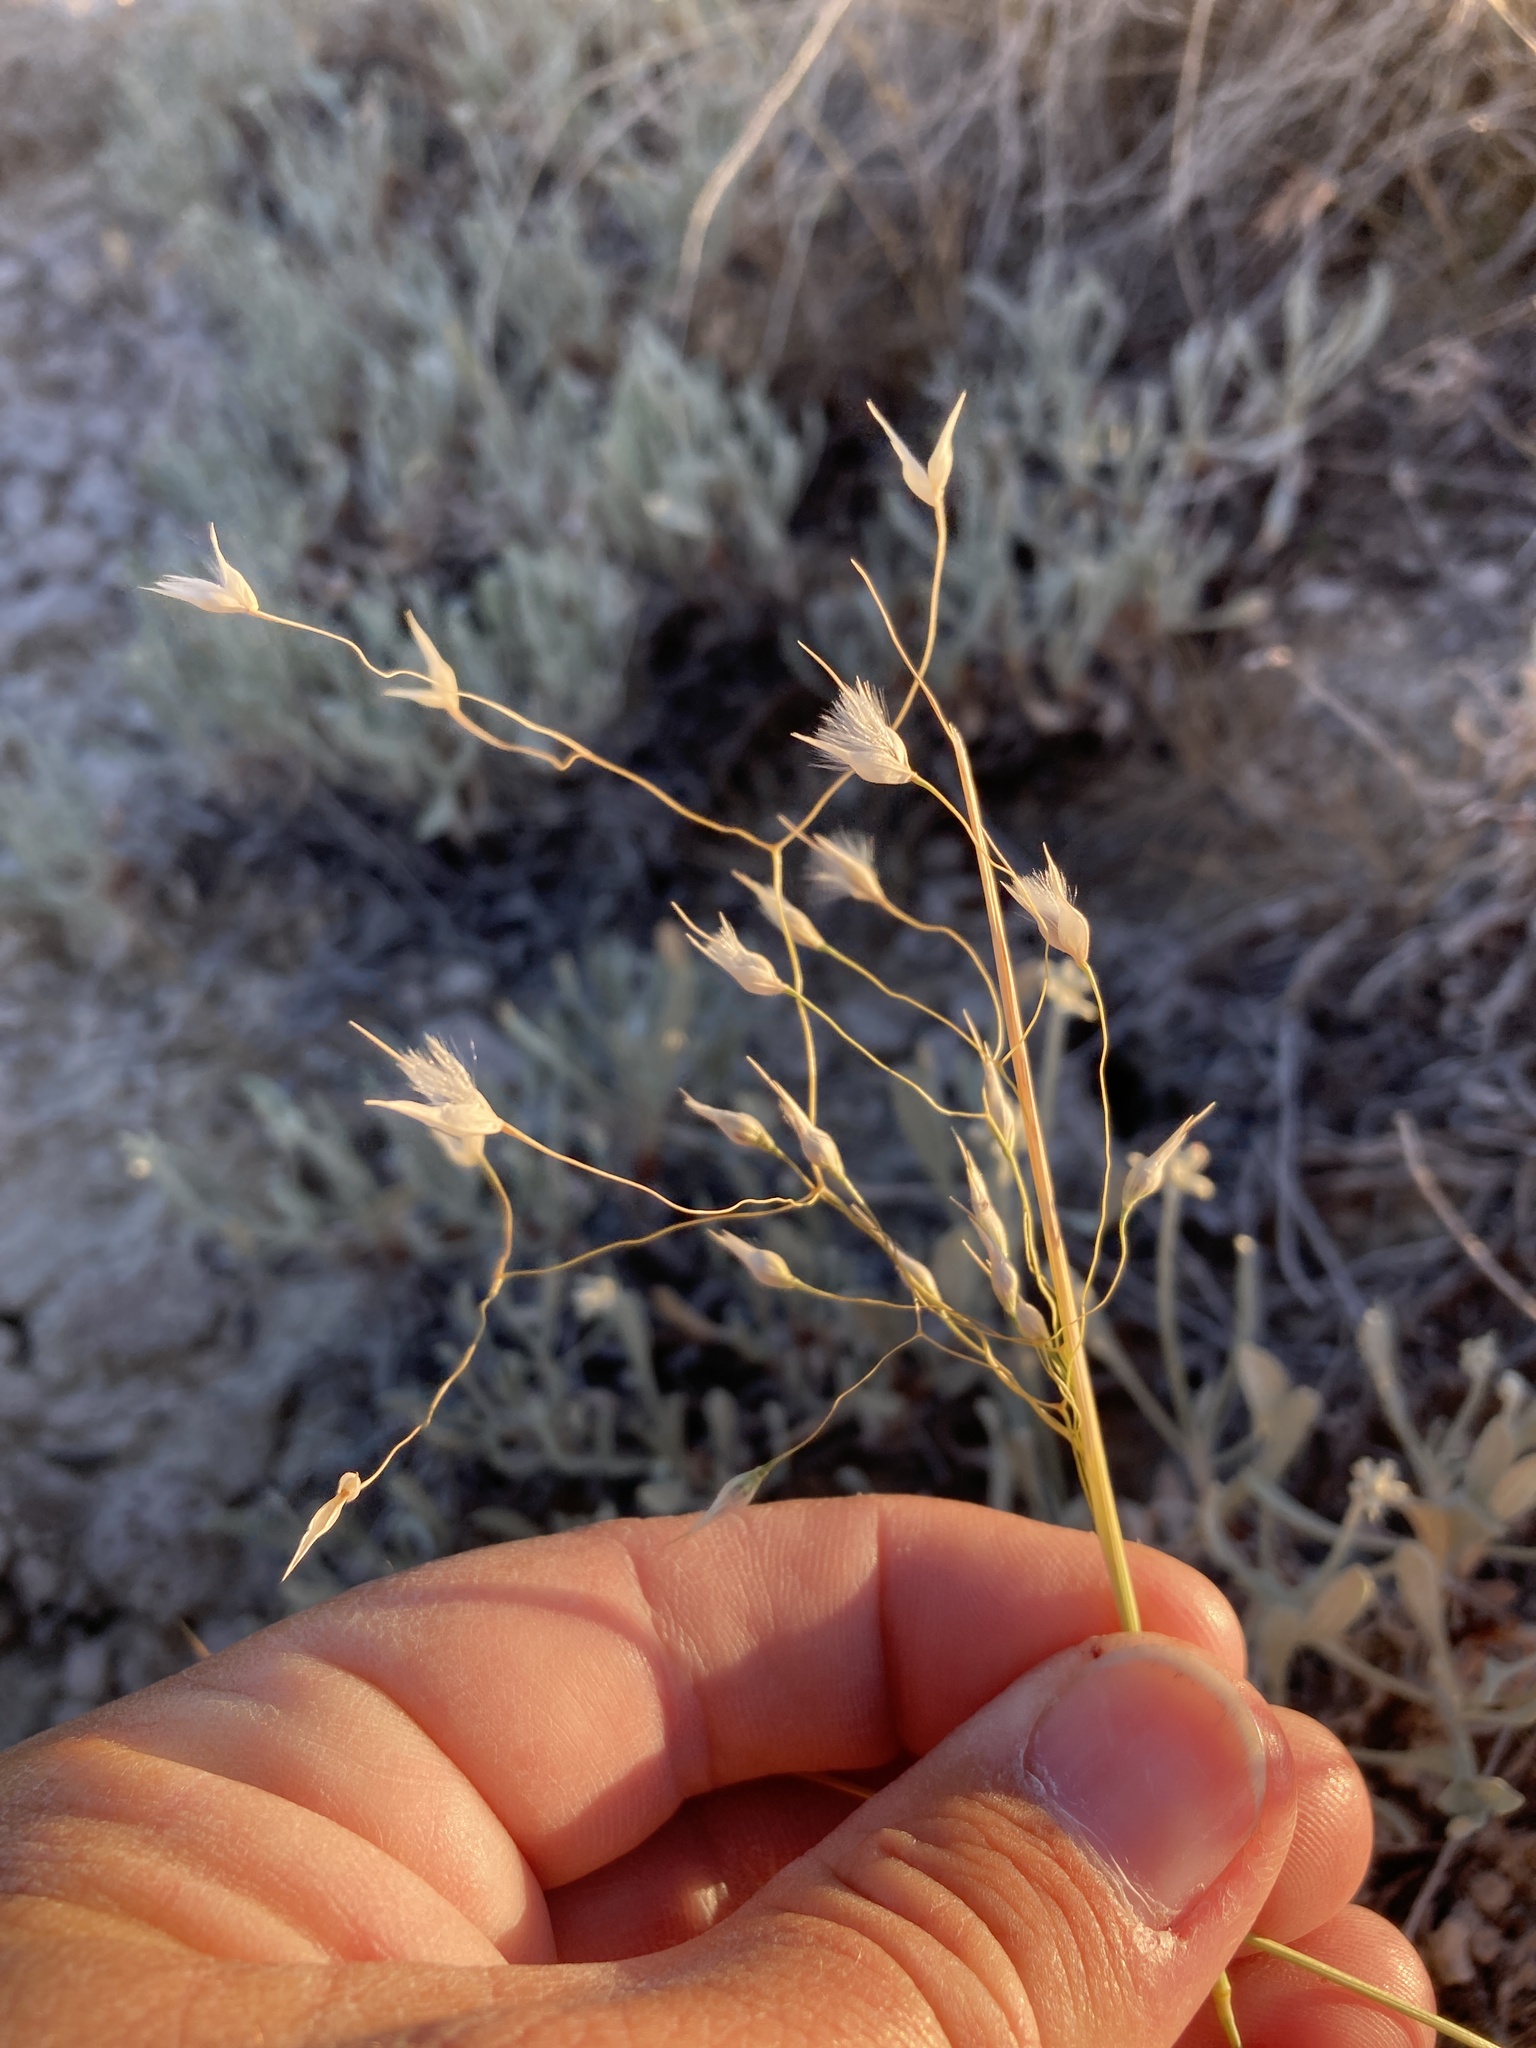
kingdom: Plantae
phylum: Tracheophyta
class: Liliopsida
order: Poales
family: Poaceae
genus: Eriocoma
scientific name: Eriocoma hymenoides
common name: Indian mountain ricegrass
